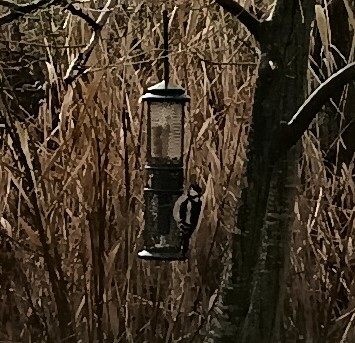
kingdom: Animalia
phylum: Chordata
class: Aves
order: Piciformes
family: Picidae
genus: Dendrocopos
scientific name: Dendrocopos major
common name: Great spotted woodpecker
